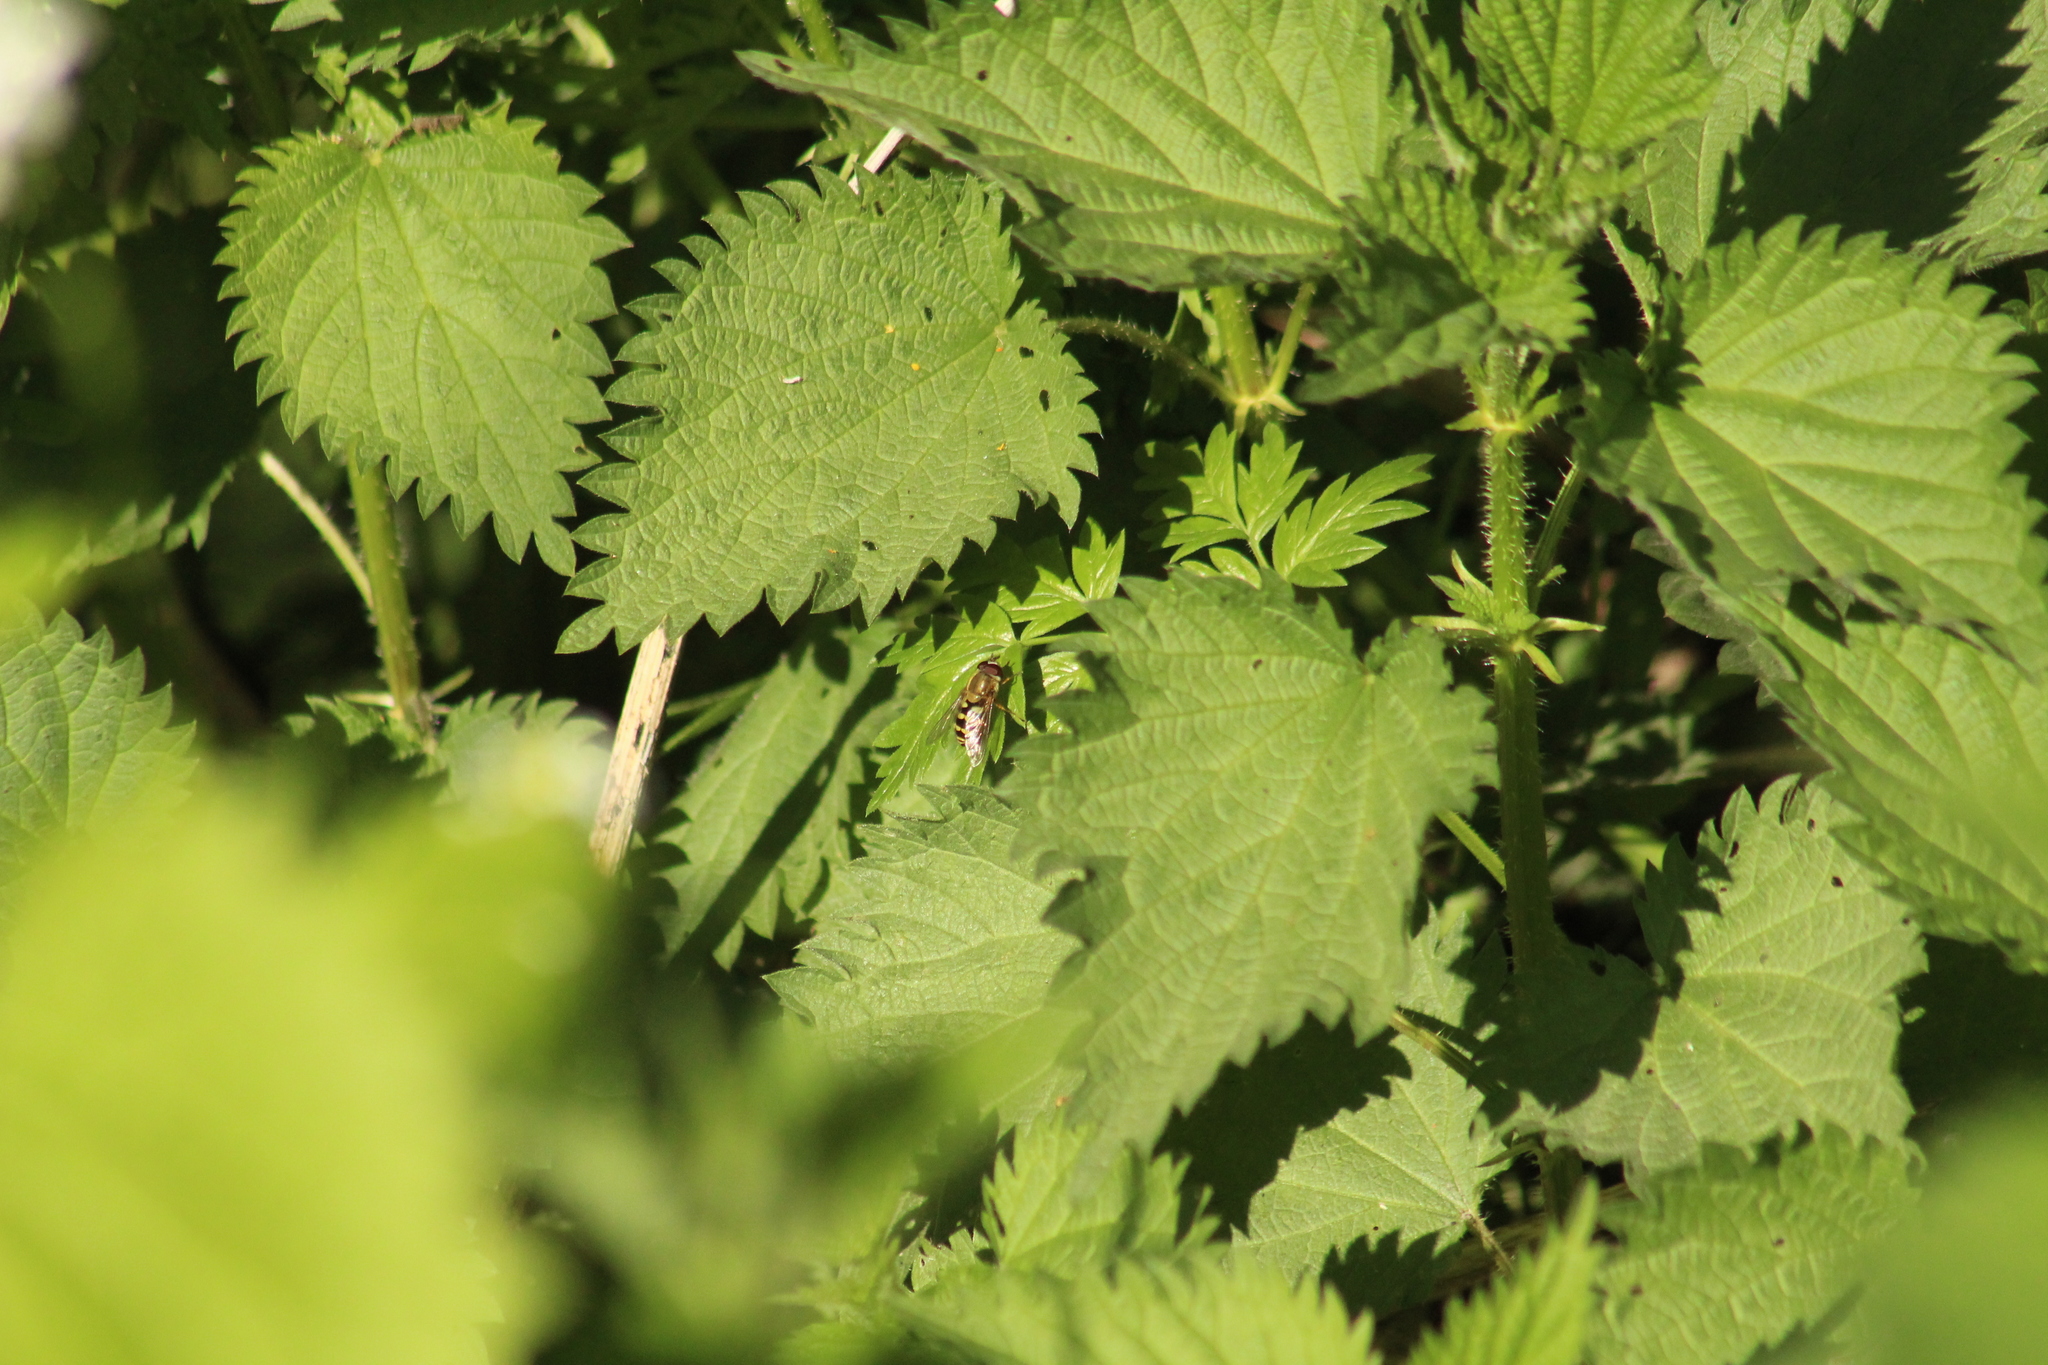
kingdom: Animalia
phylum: Arthropoda
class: Insecta
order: Diptera
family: Syrphidae
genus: Syrphus
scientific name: Syrphus
